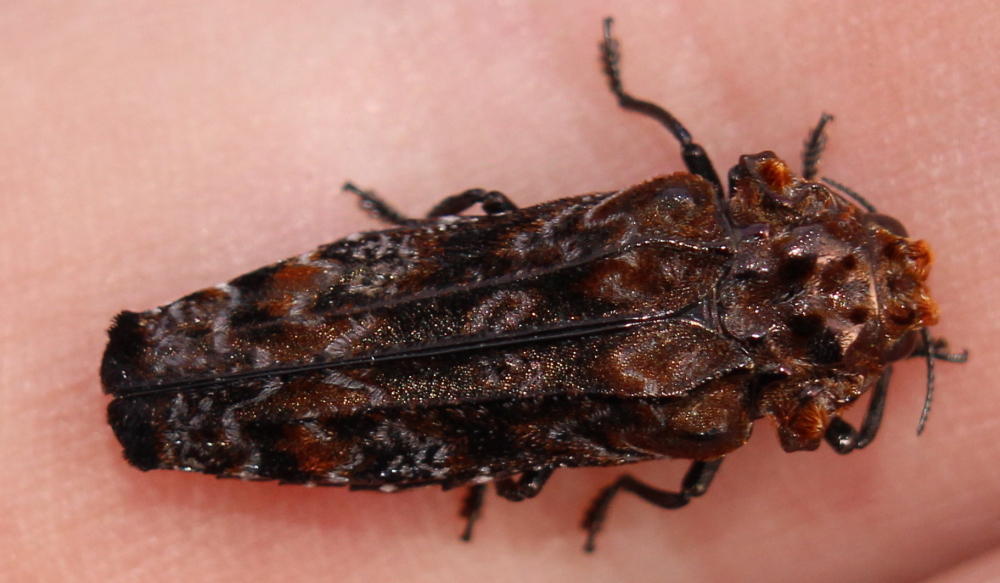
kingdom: Animalia
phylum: Arthropoda
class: Insecta
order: Coleoptera
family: Buprestidae
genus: Anadora
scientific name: Anadora cupriventris
